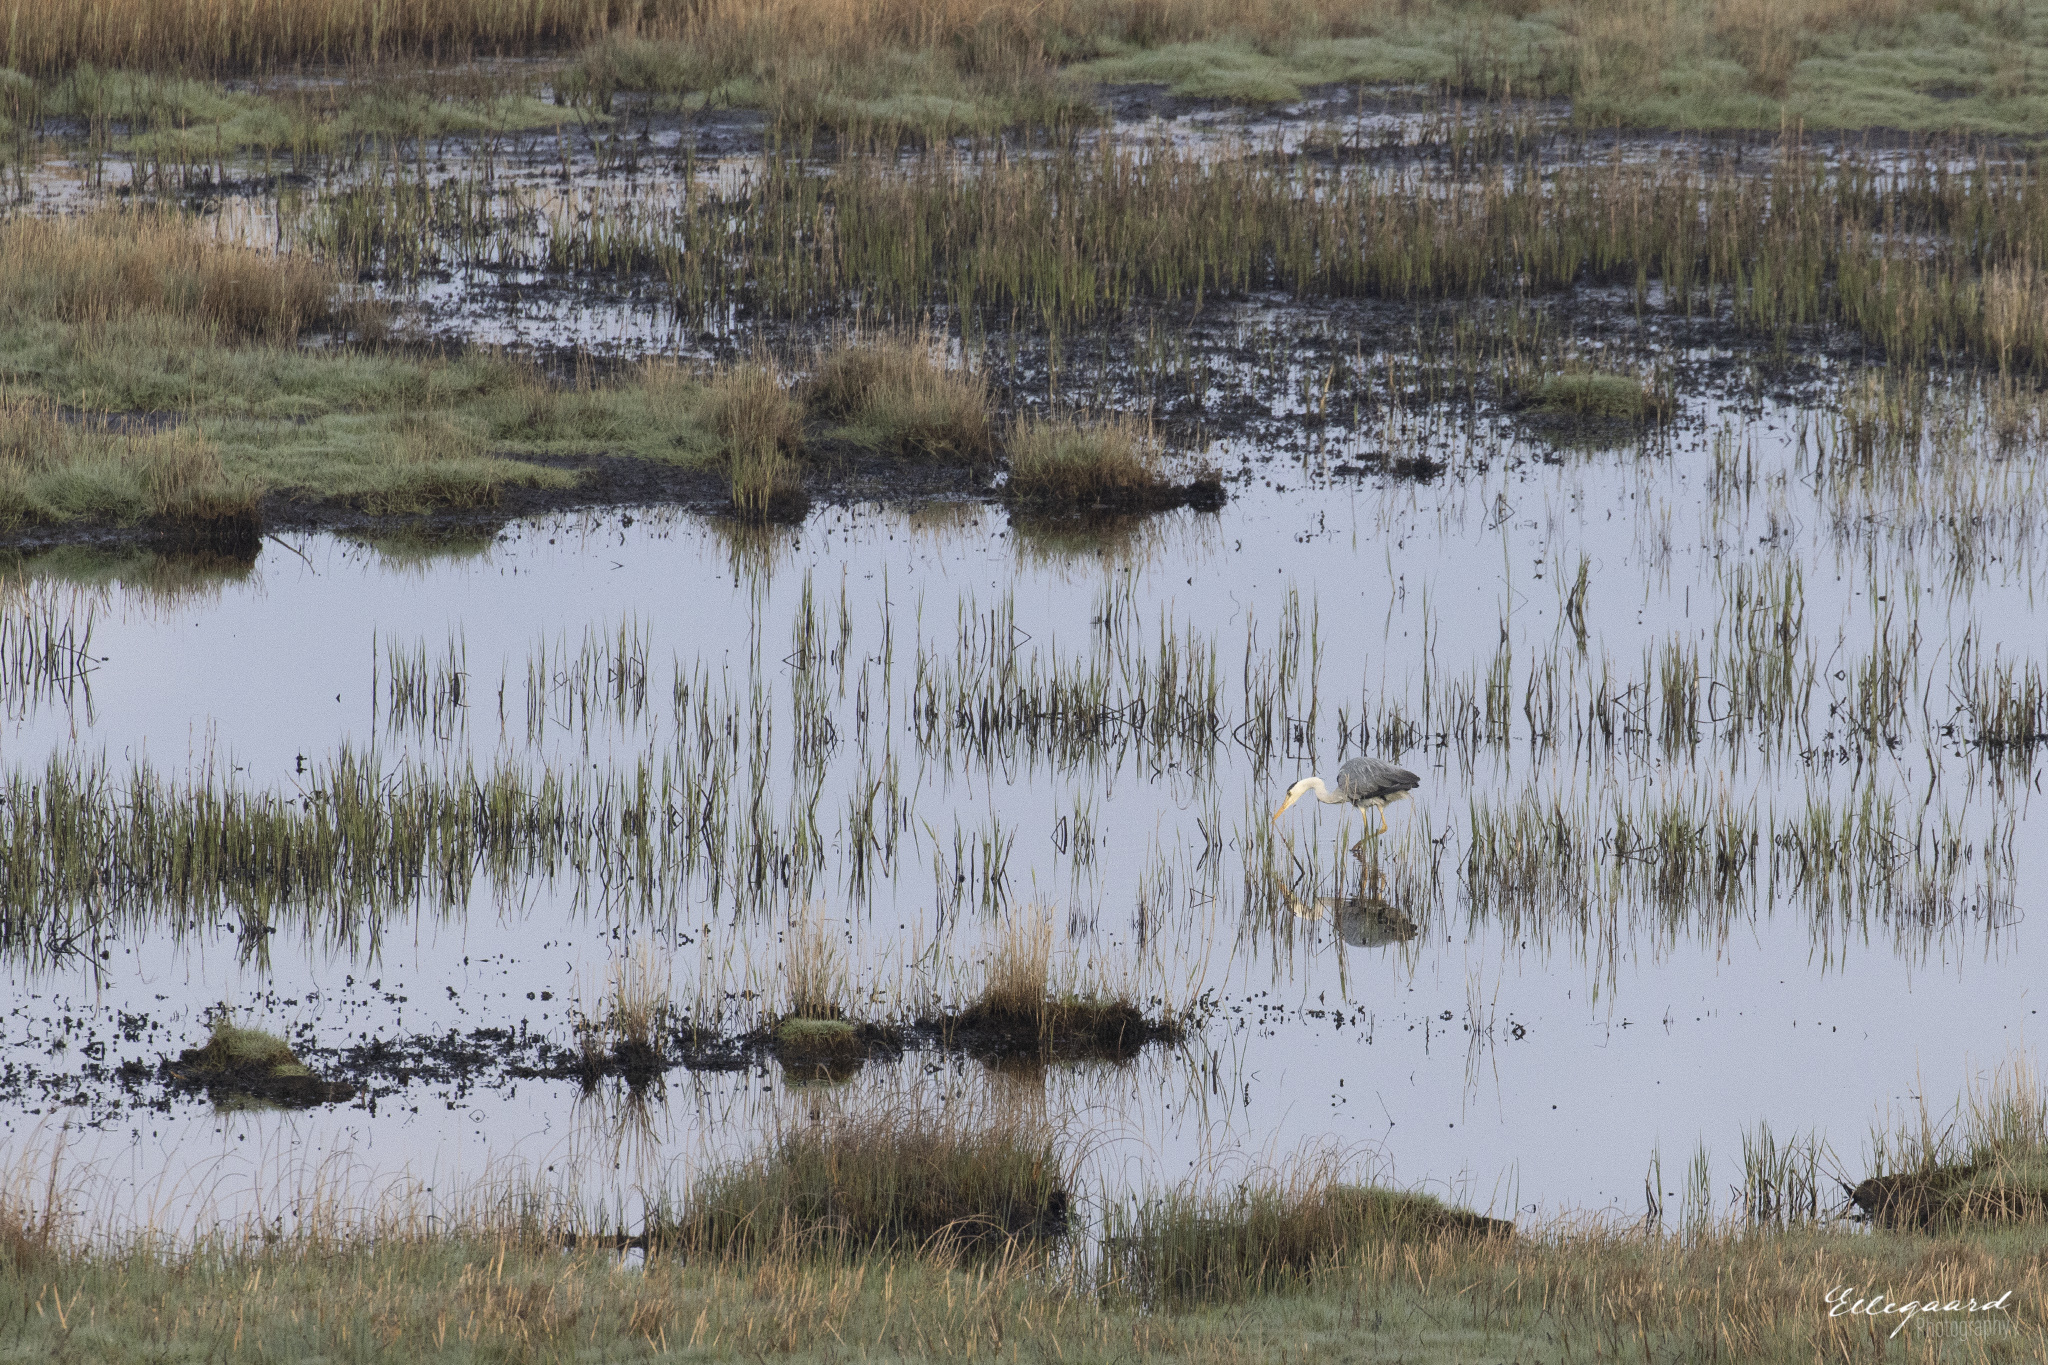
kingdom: Animalia
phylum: Chordata
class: Aves
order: Pelecaniformes
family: Ardeidae
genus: Ardea
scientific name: Ardea cinerea
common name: Grey heron
